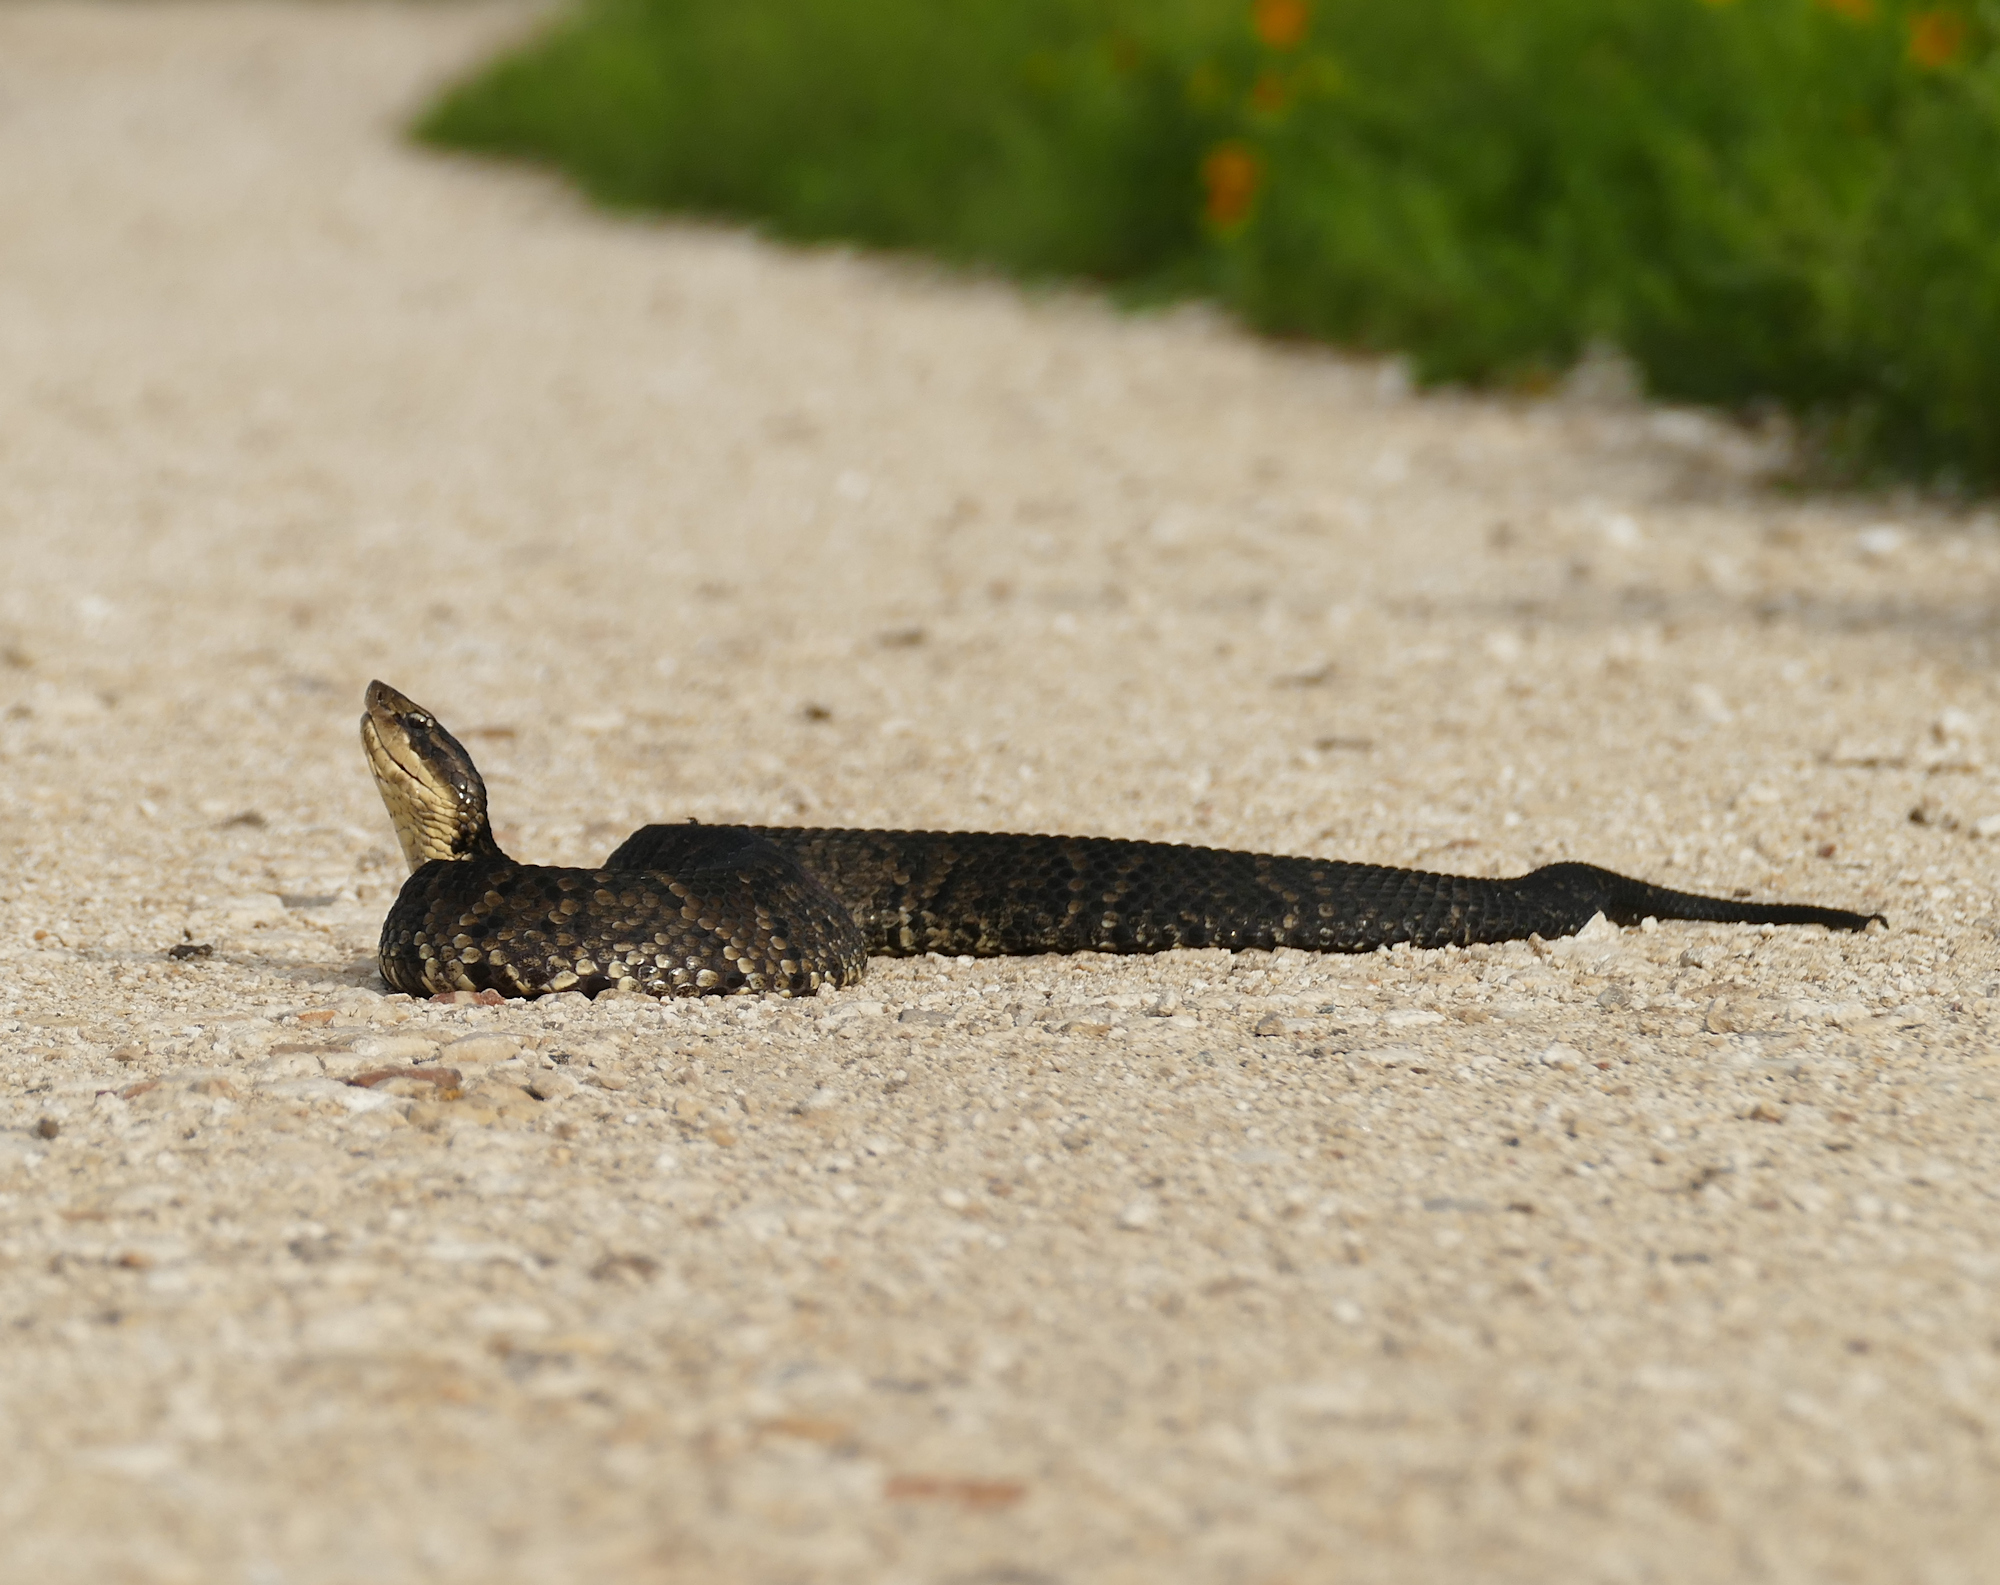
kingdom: Animalia
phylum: Chordata
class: Squamata
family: Viperidae
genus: Agkistrodon
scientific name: Agkistrodon piscivorus
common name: Cottonmouth
